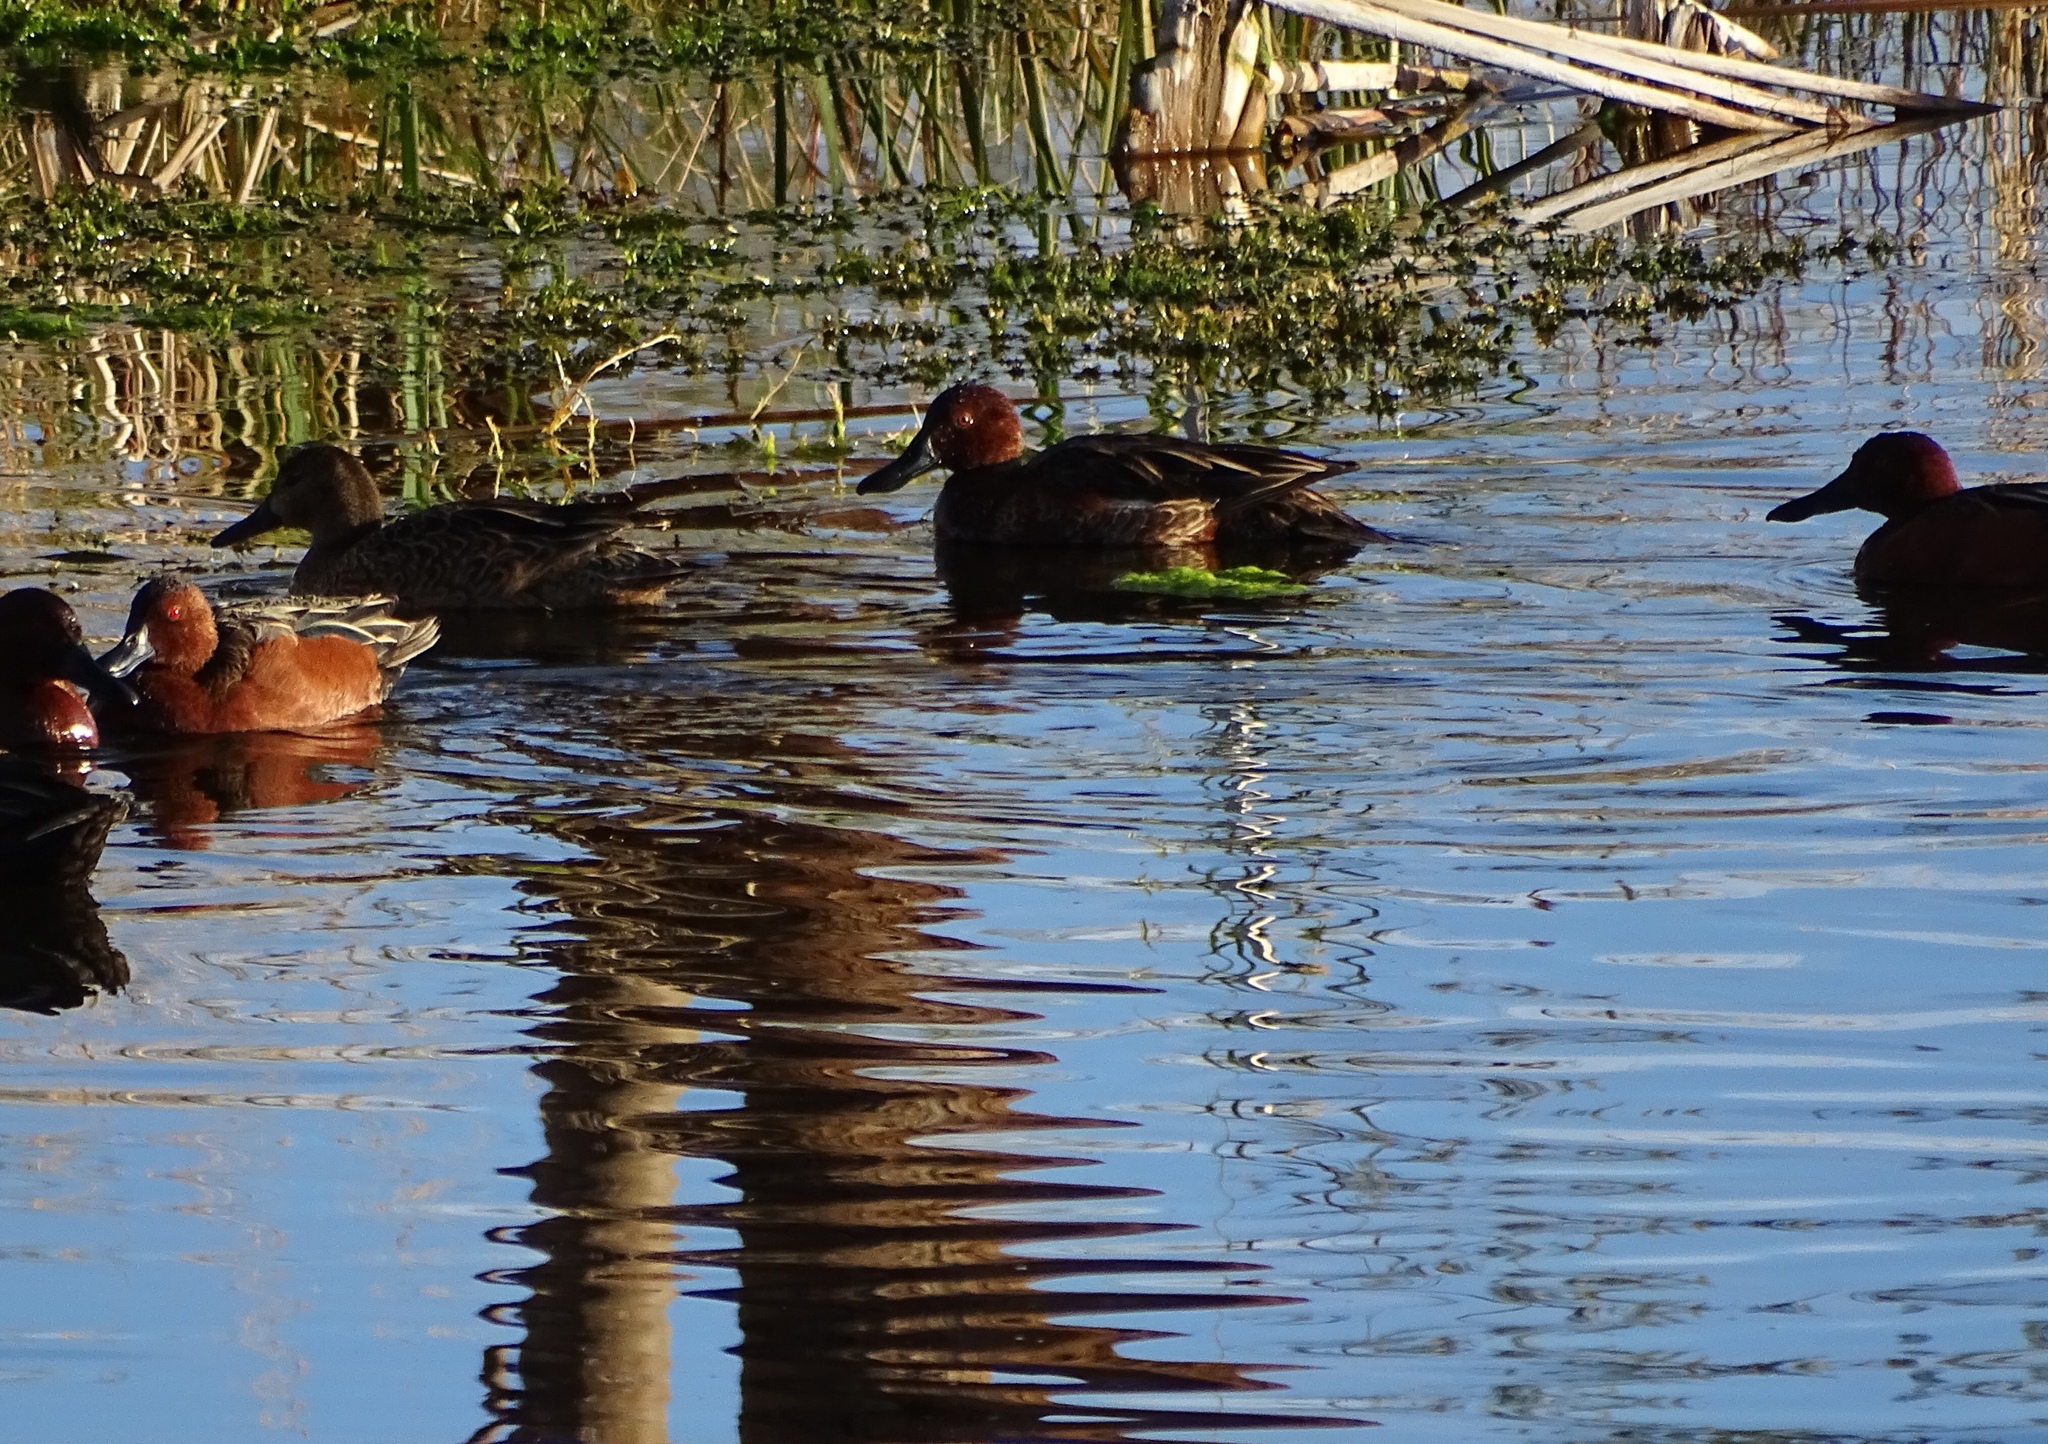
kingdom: Animalia
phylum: Chordata
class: Aves
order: Anseriformes
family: Anatidae
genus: Spatula
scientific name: Spatula cyanoptera
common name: Cinnamon teal
